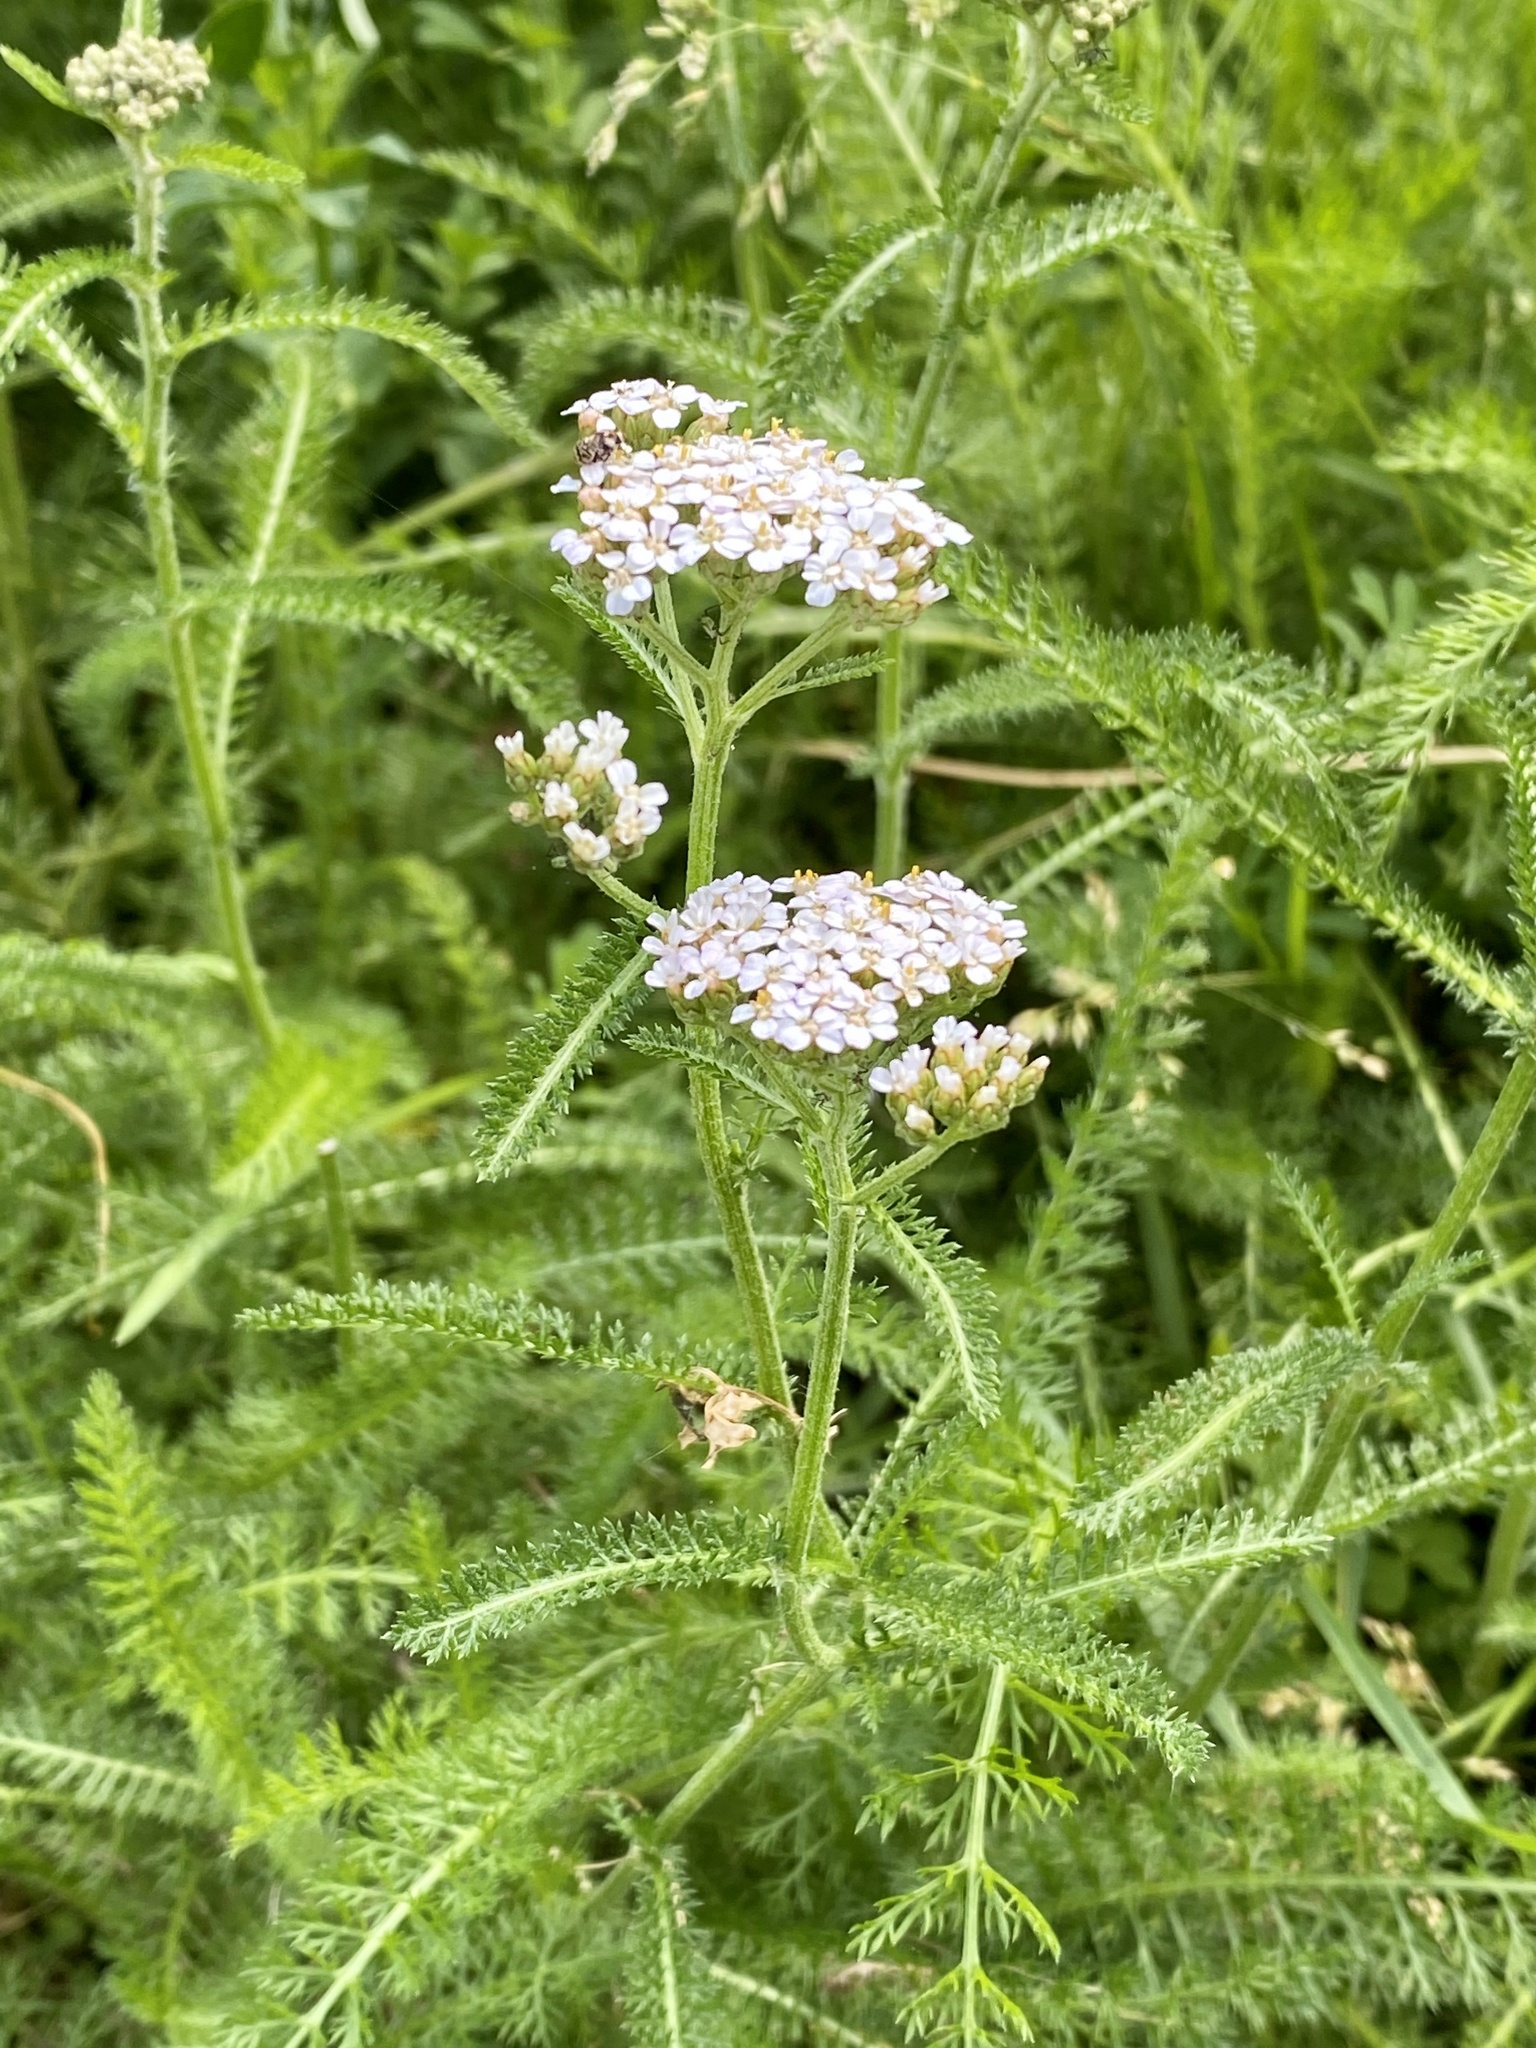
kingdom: Plantae
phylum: Tracheophyta
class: Magnoliopsida
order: Asterales
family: Asteraceae
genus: Achillea
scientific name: Achillea millefolium
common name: Yarrow
